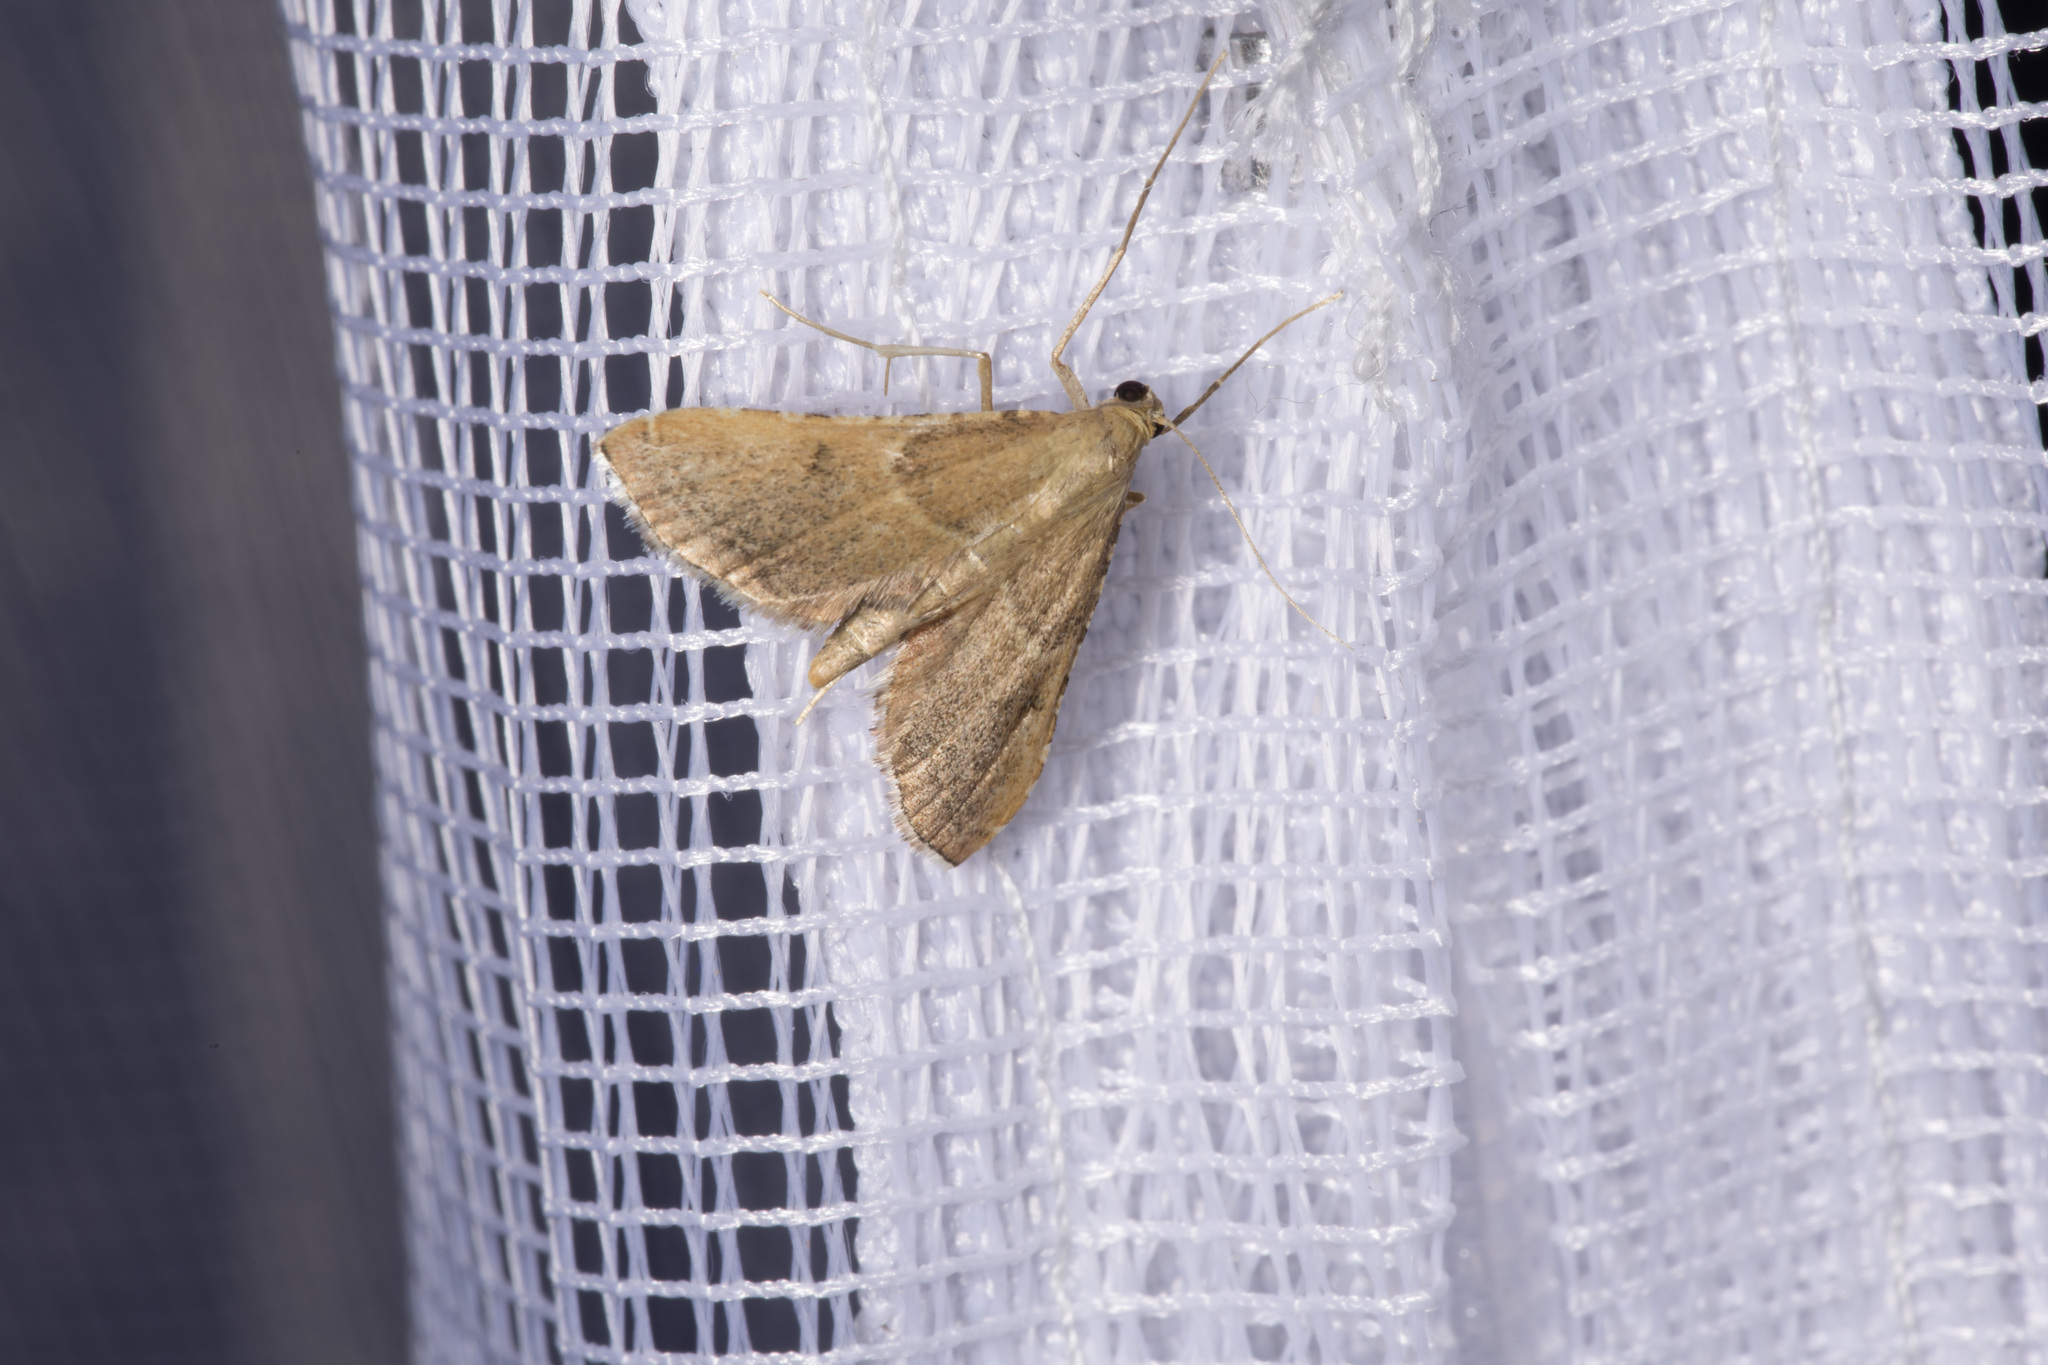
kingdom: Animalia
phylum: Arthropoda
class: Insecta
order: Lepidoptera
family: Pyralidae
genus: Endotricha
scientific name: Endotricha flammealis
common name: Rosy tabby
